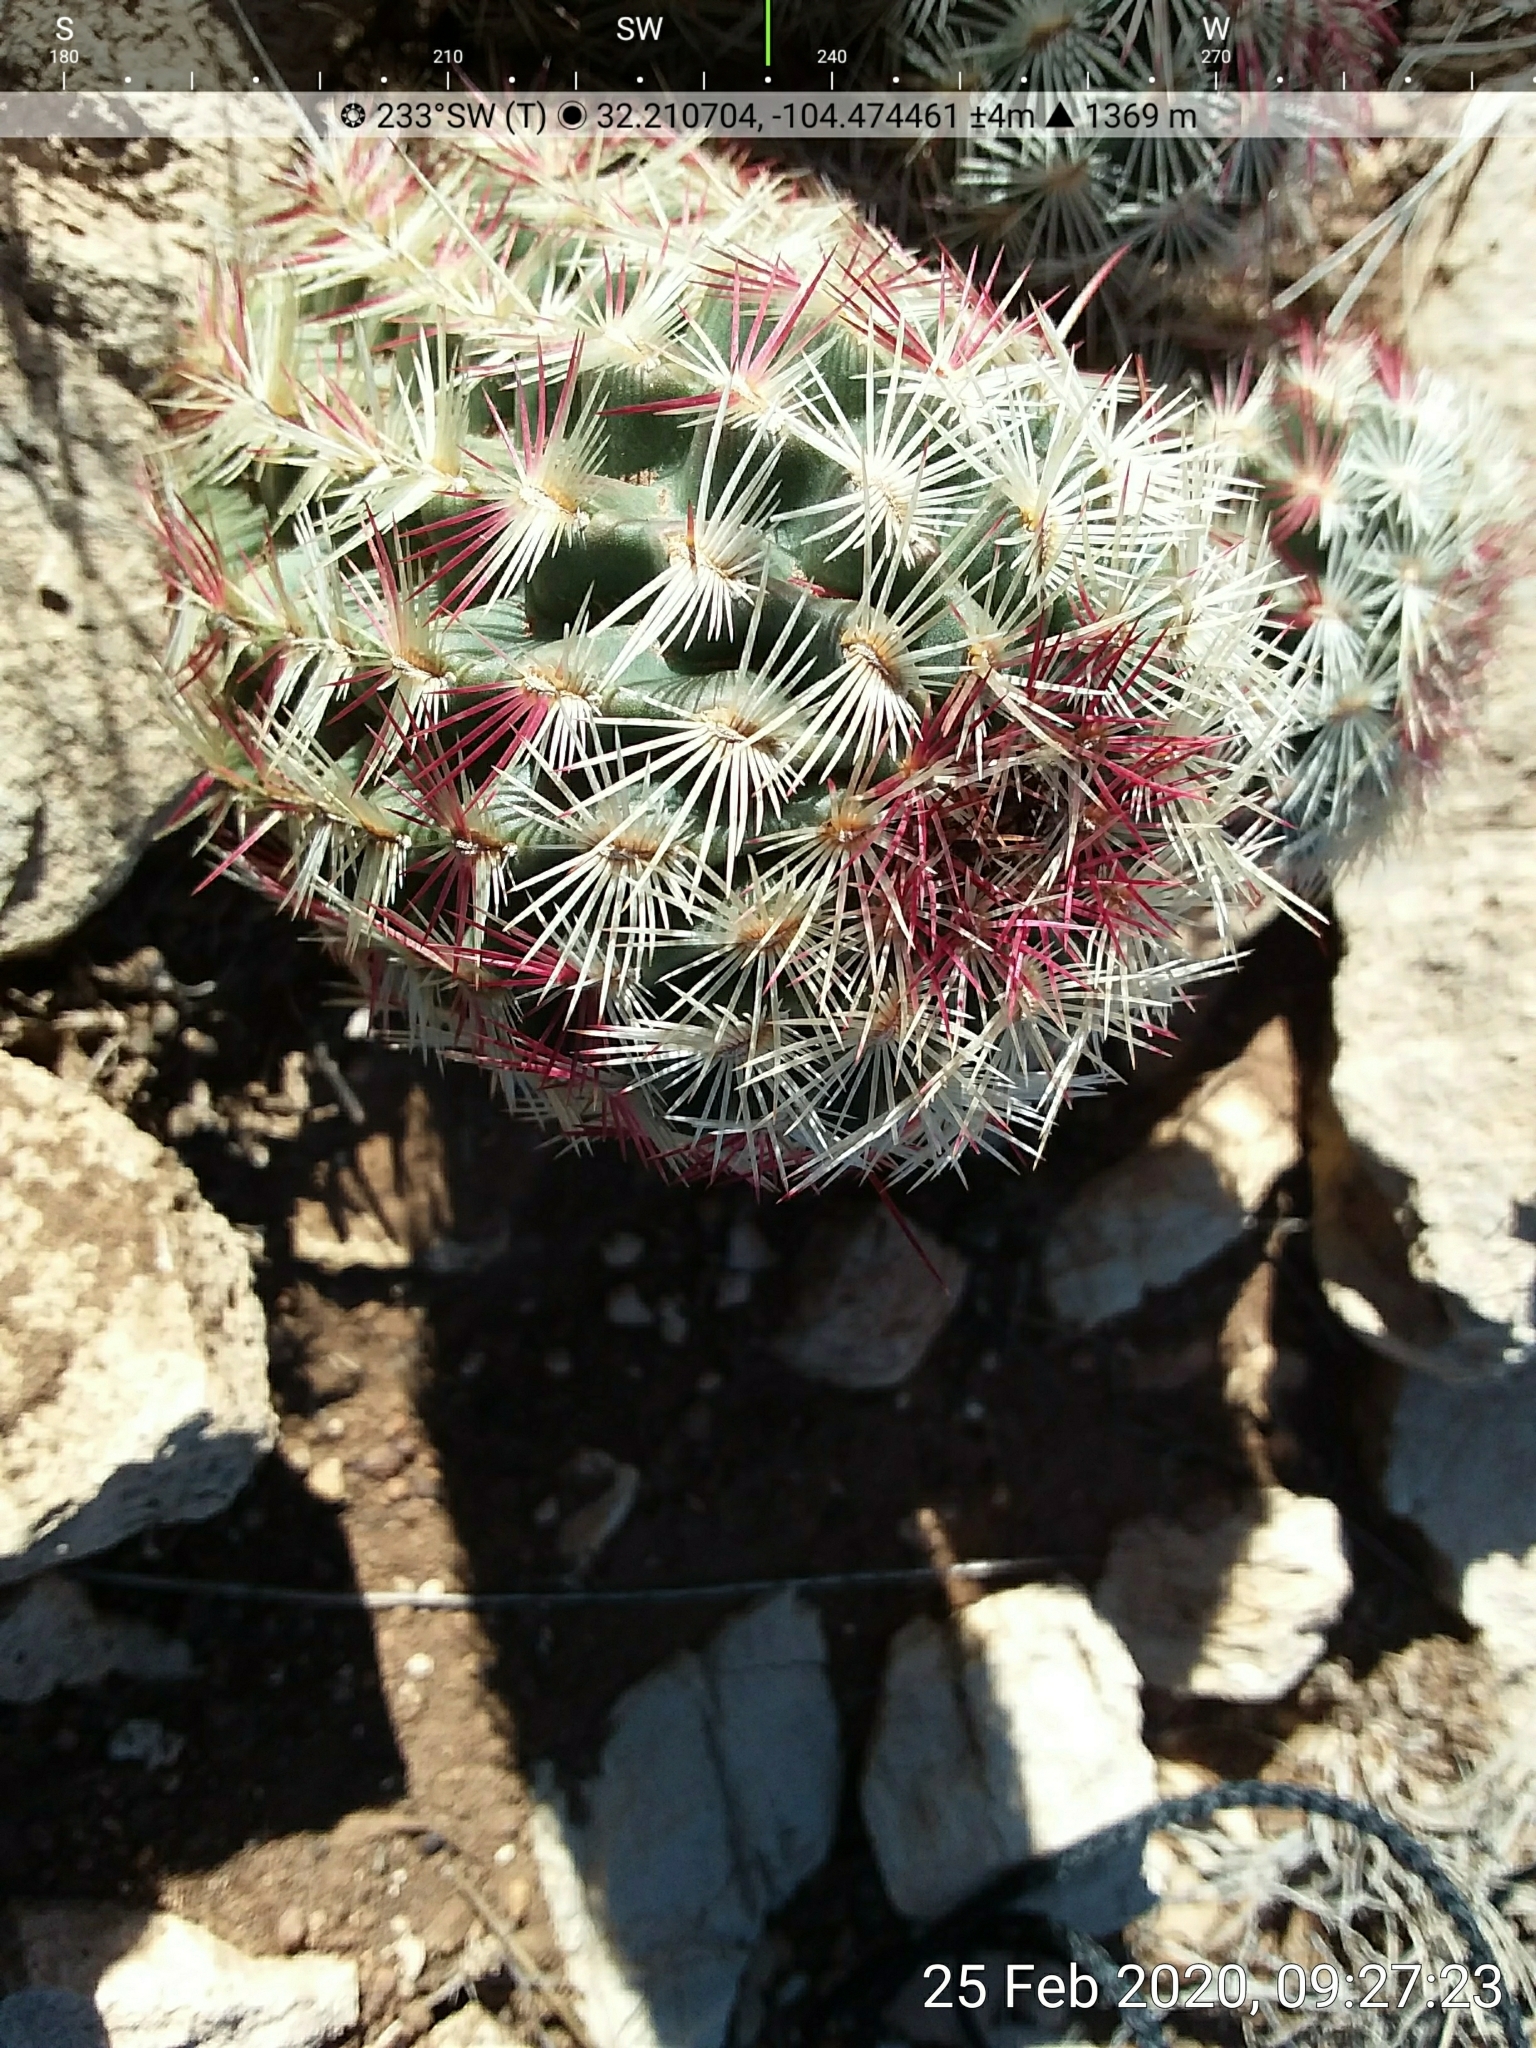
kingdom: Plantae
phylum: Tracheophyta
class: Magnoliopsida
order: Caryophyllales
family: Cactaceae
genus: Echinocereus
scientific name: Echinocereus viridiflorus
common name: Nylon hedgehog cactus
